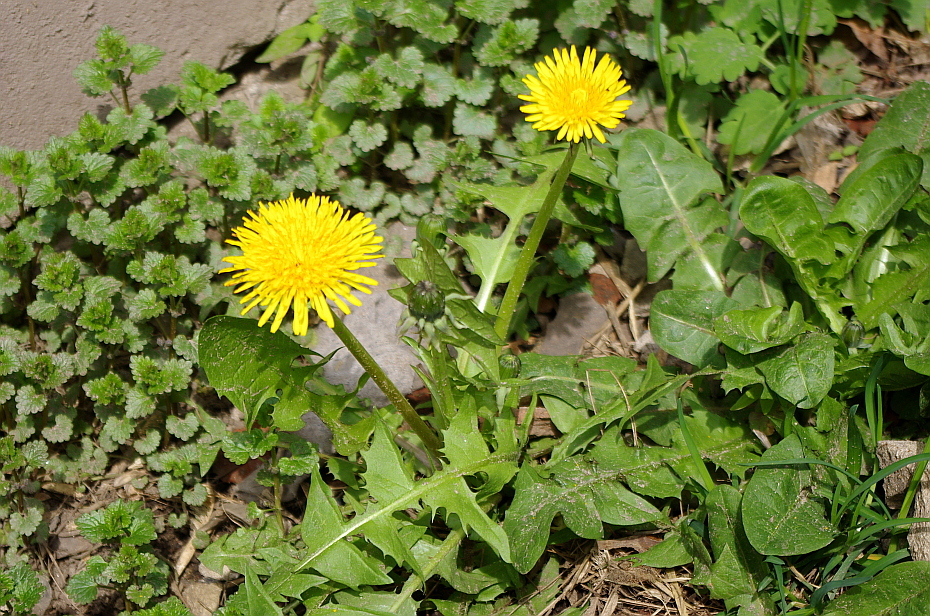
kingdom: Plantae
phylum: Tracheophyta
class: Magnoliopsida
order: Asterales
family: Asteraceae
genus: Taraxacum
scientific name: Taraxacum officinale
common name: Common dandelion
